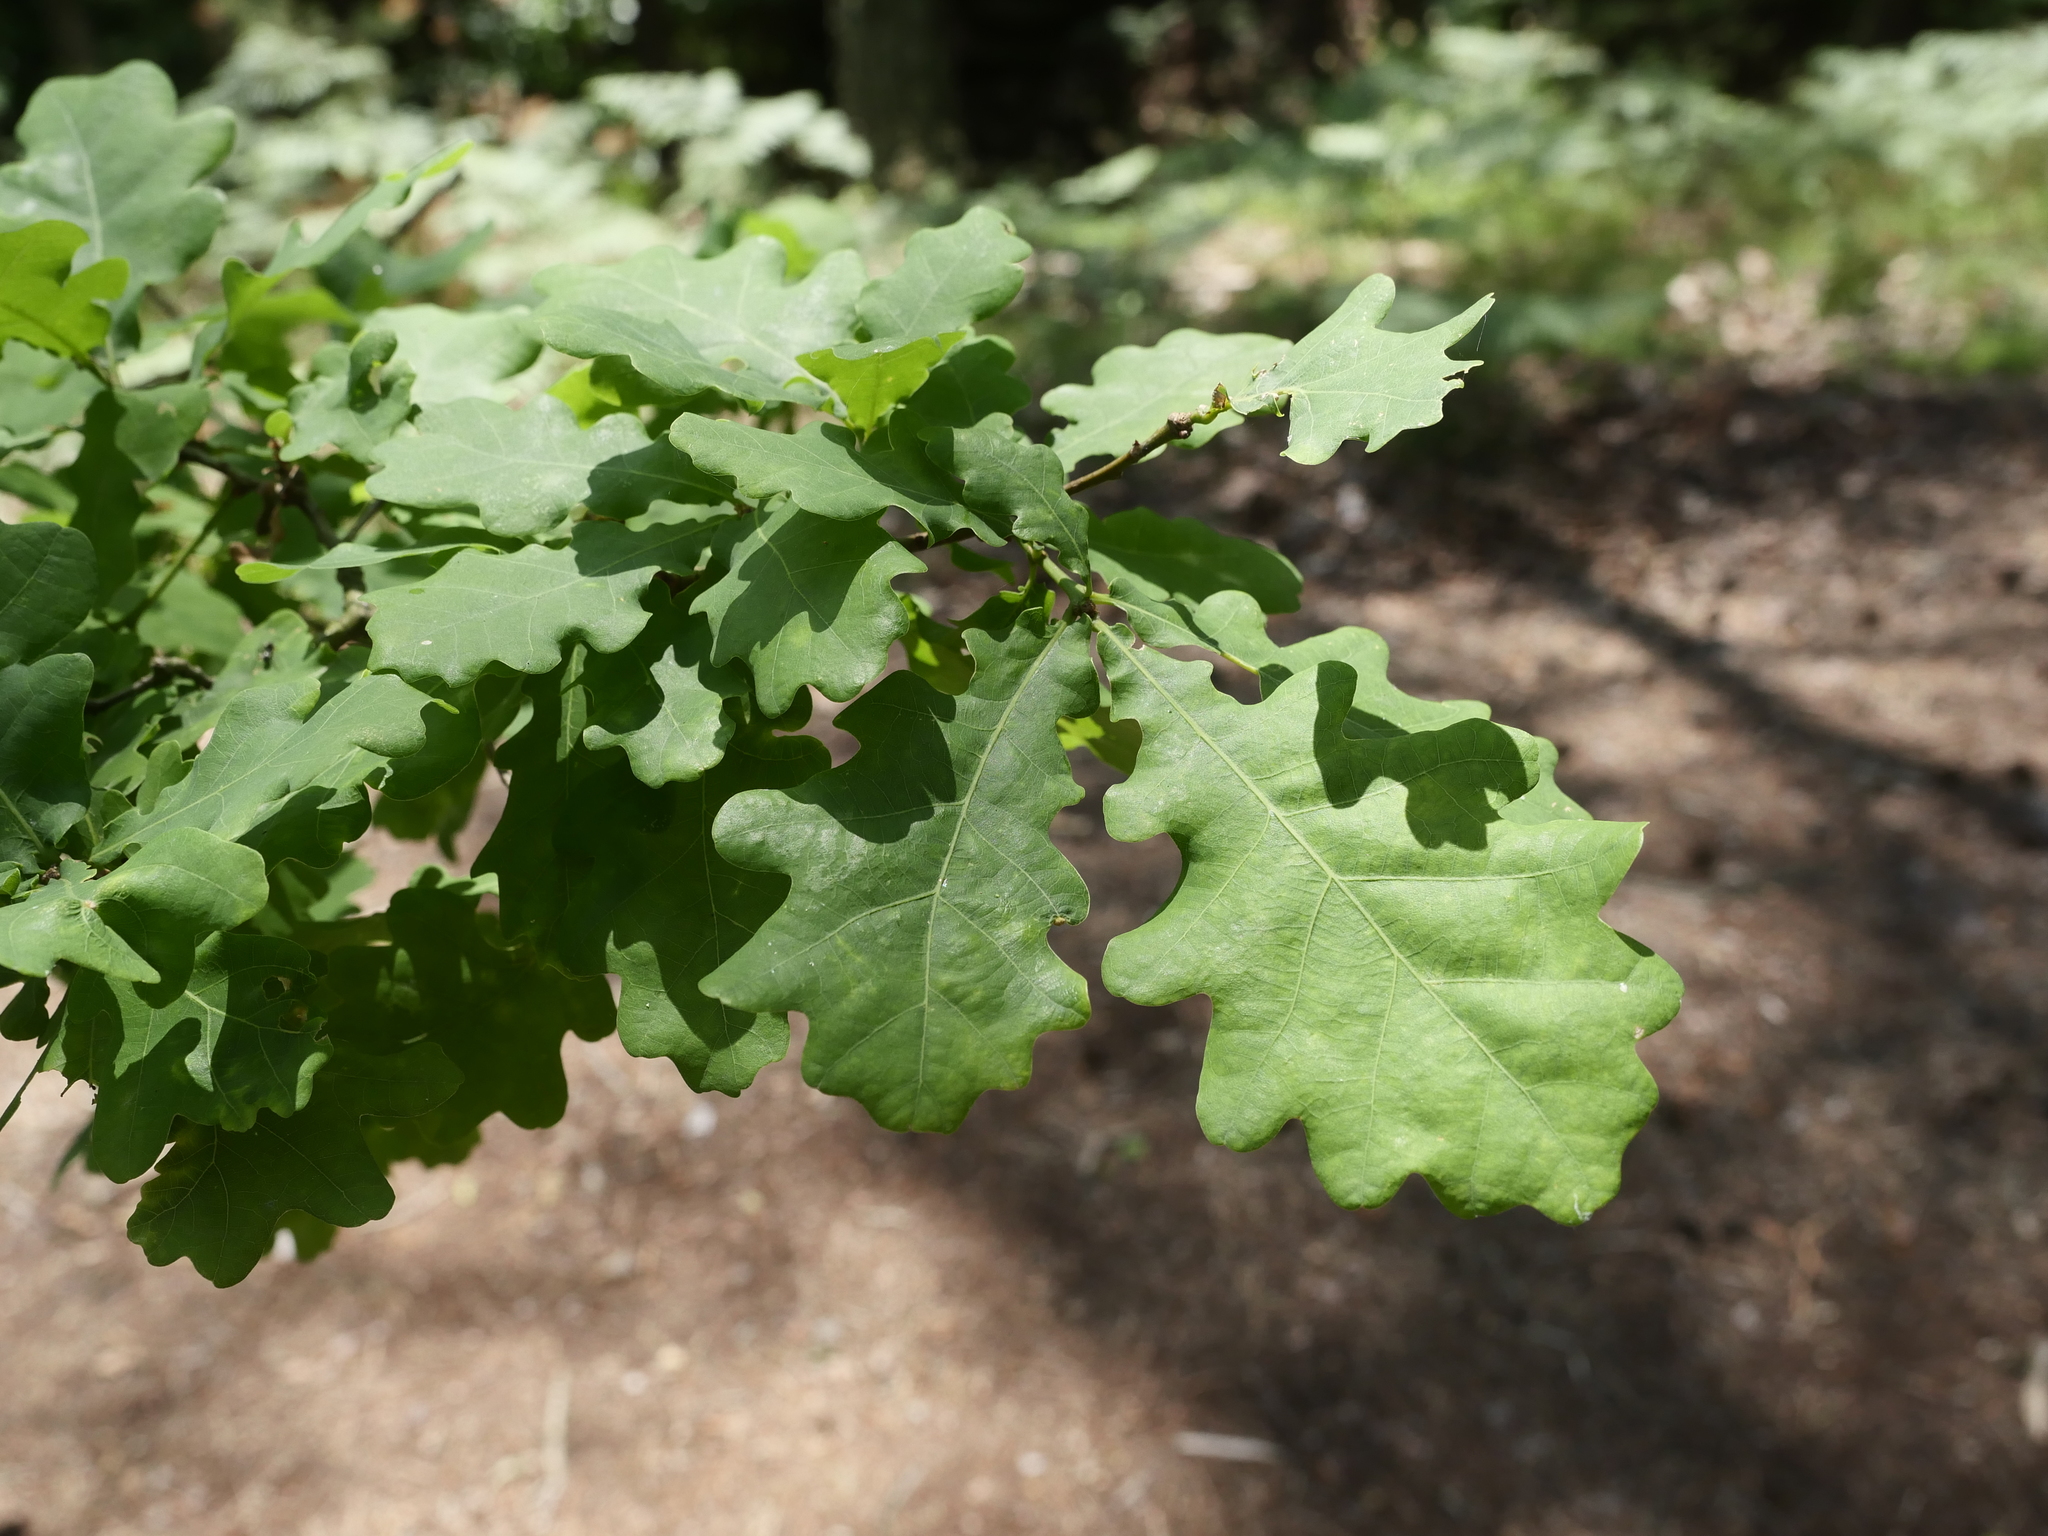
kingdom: Plantae
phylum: Tracheophyta
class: Magnoliopsida
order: Fagales
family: Fagaceae
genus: Quercus
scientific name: Quercus robur
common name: Pedunculate oak
